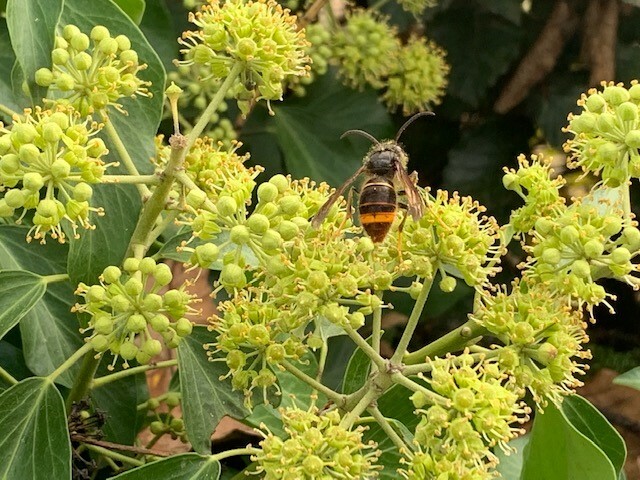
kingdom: Animalia
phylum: Arthropoda
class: Insecta
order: Hymenoptera
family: Vespidae
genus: Vespa
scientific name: Vespa velutina
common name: Asian hornet
